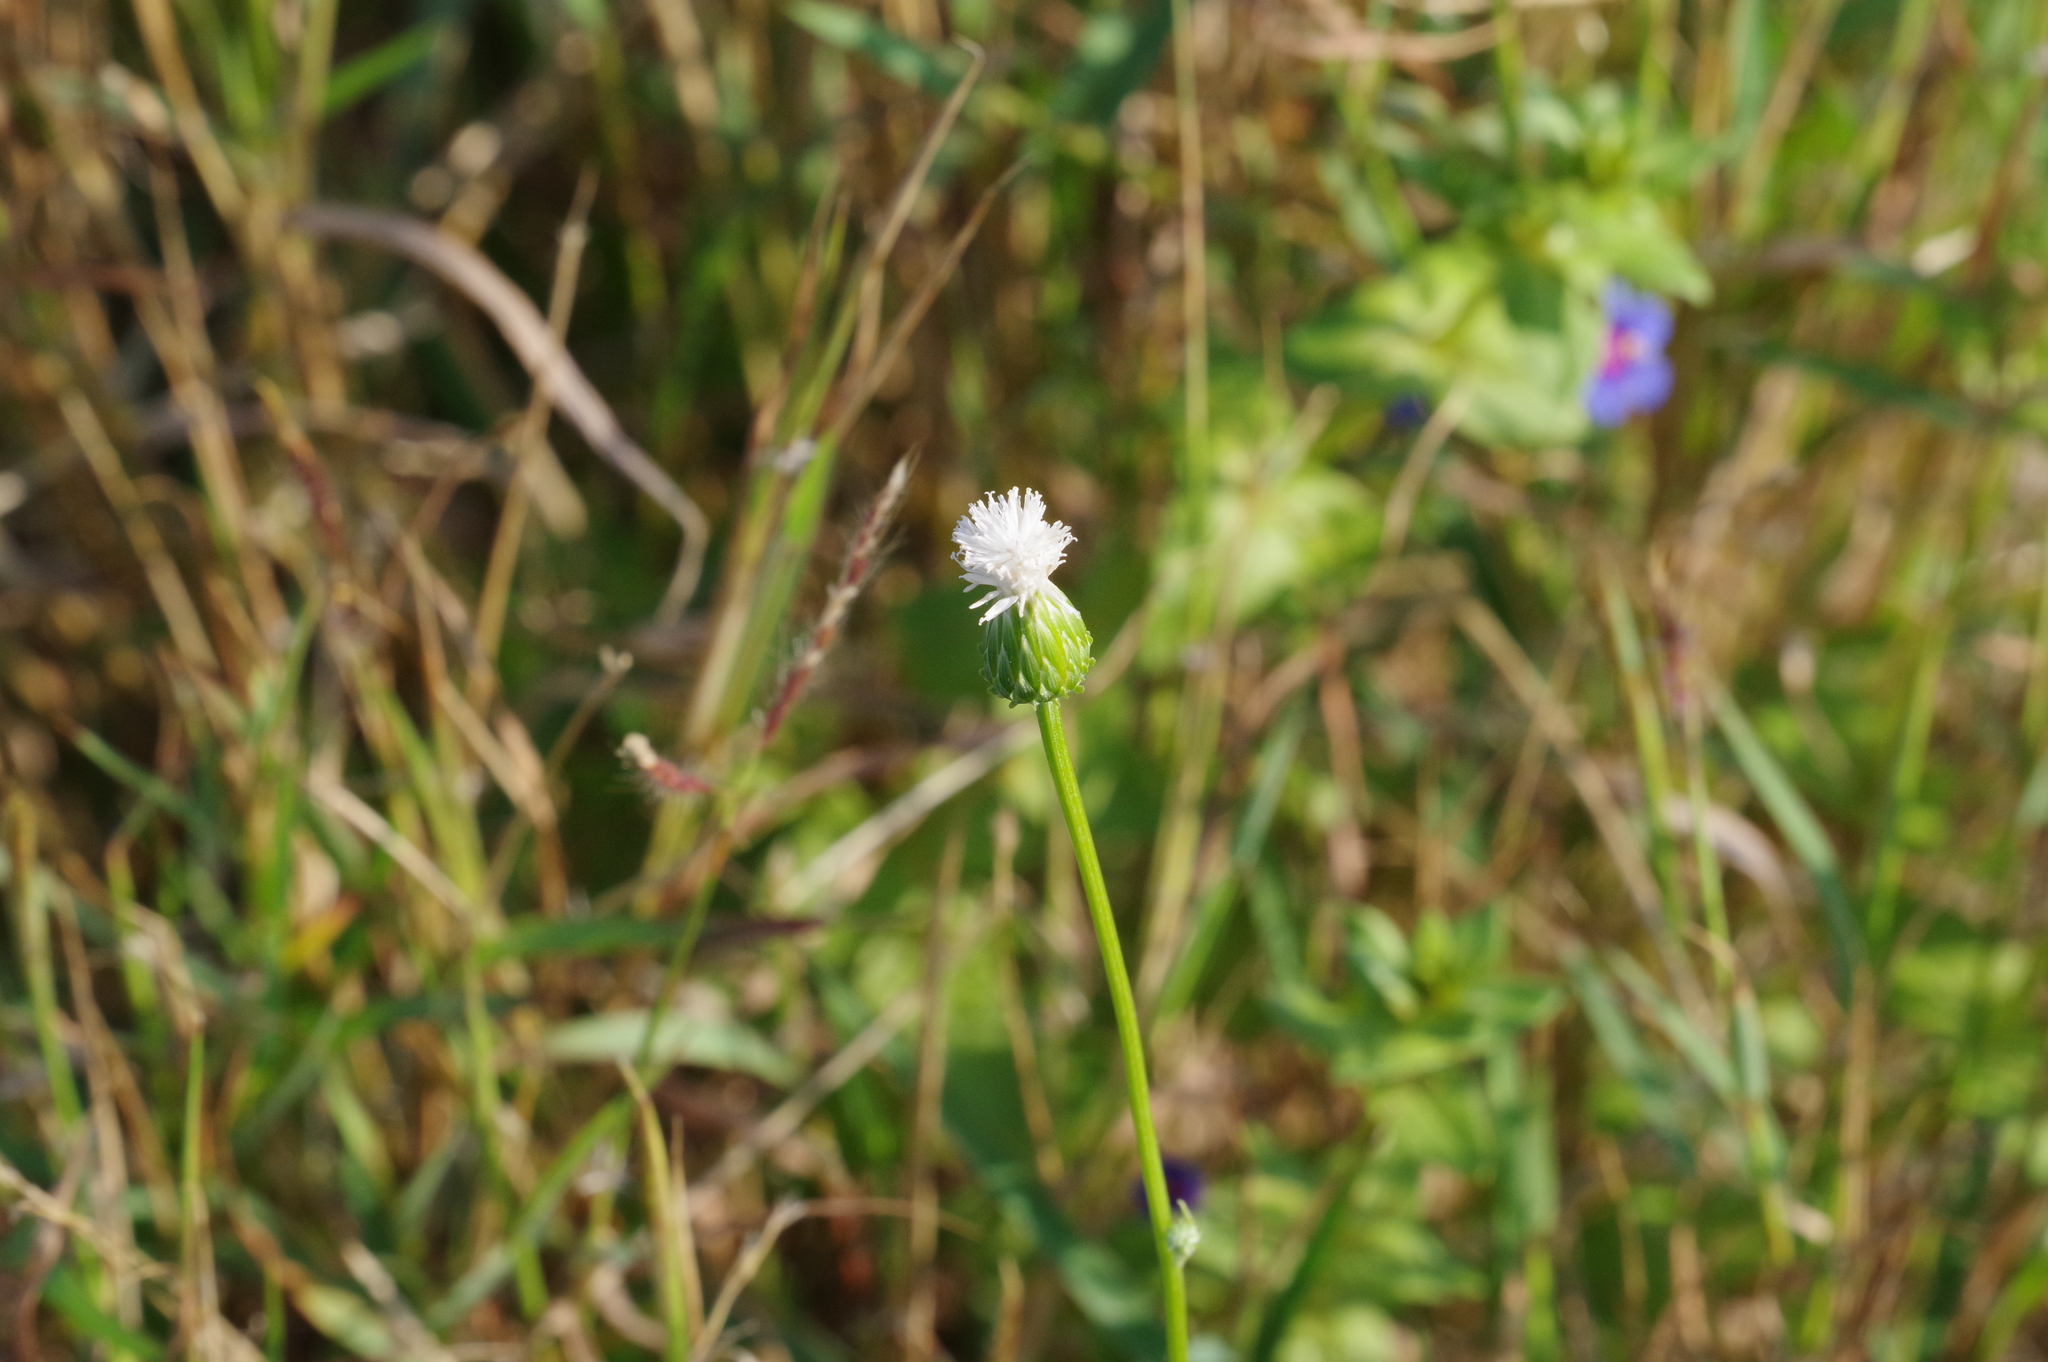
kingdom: Plantae
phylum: Tracheophyta
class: Magnoliopsida
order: Asterales
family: Asteraceae
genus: Saussurea
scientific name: Saussurea lyrata
